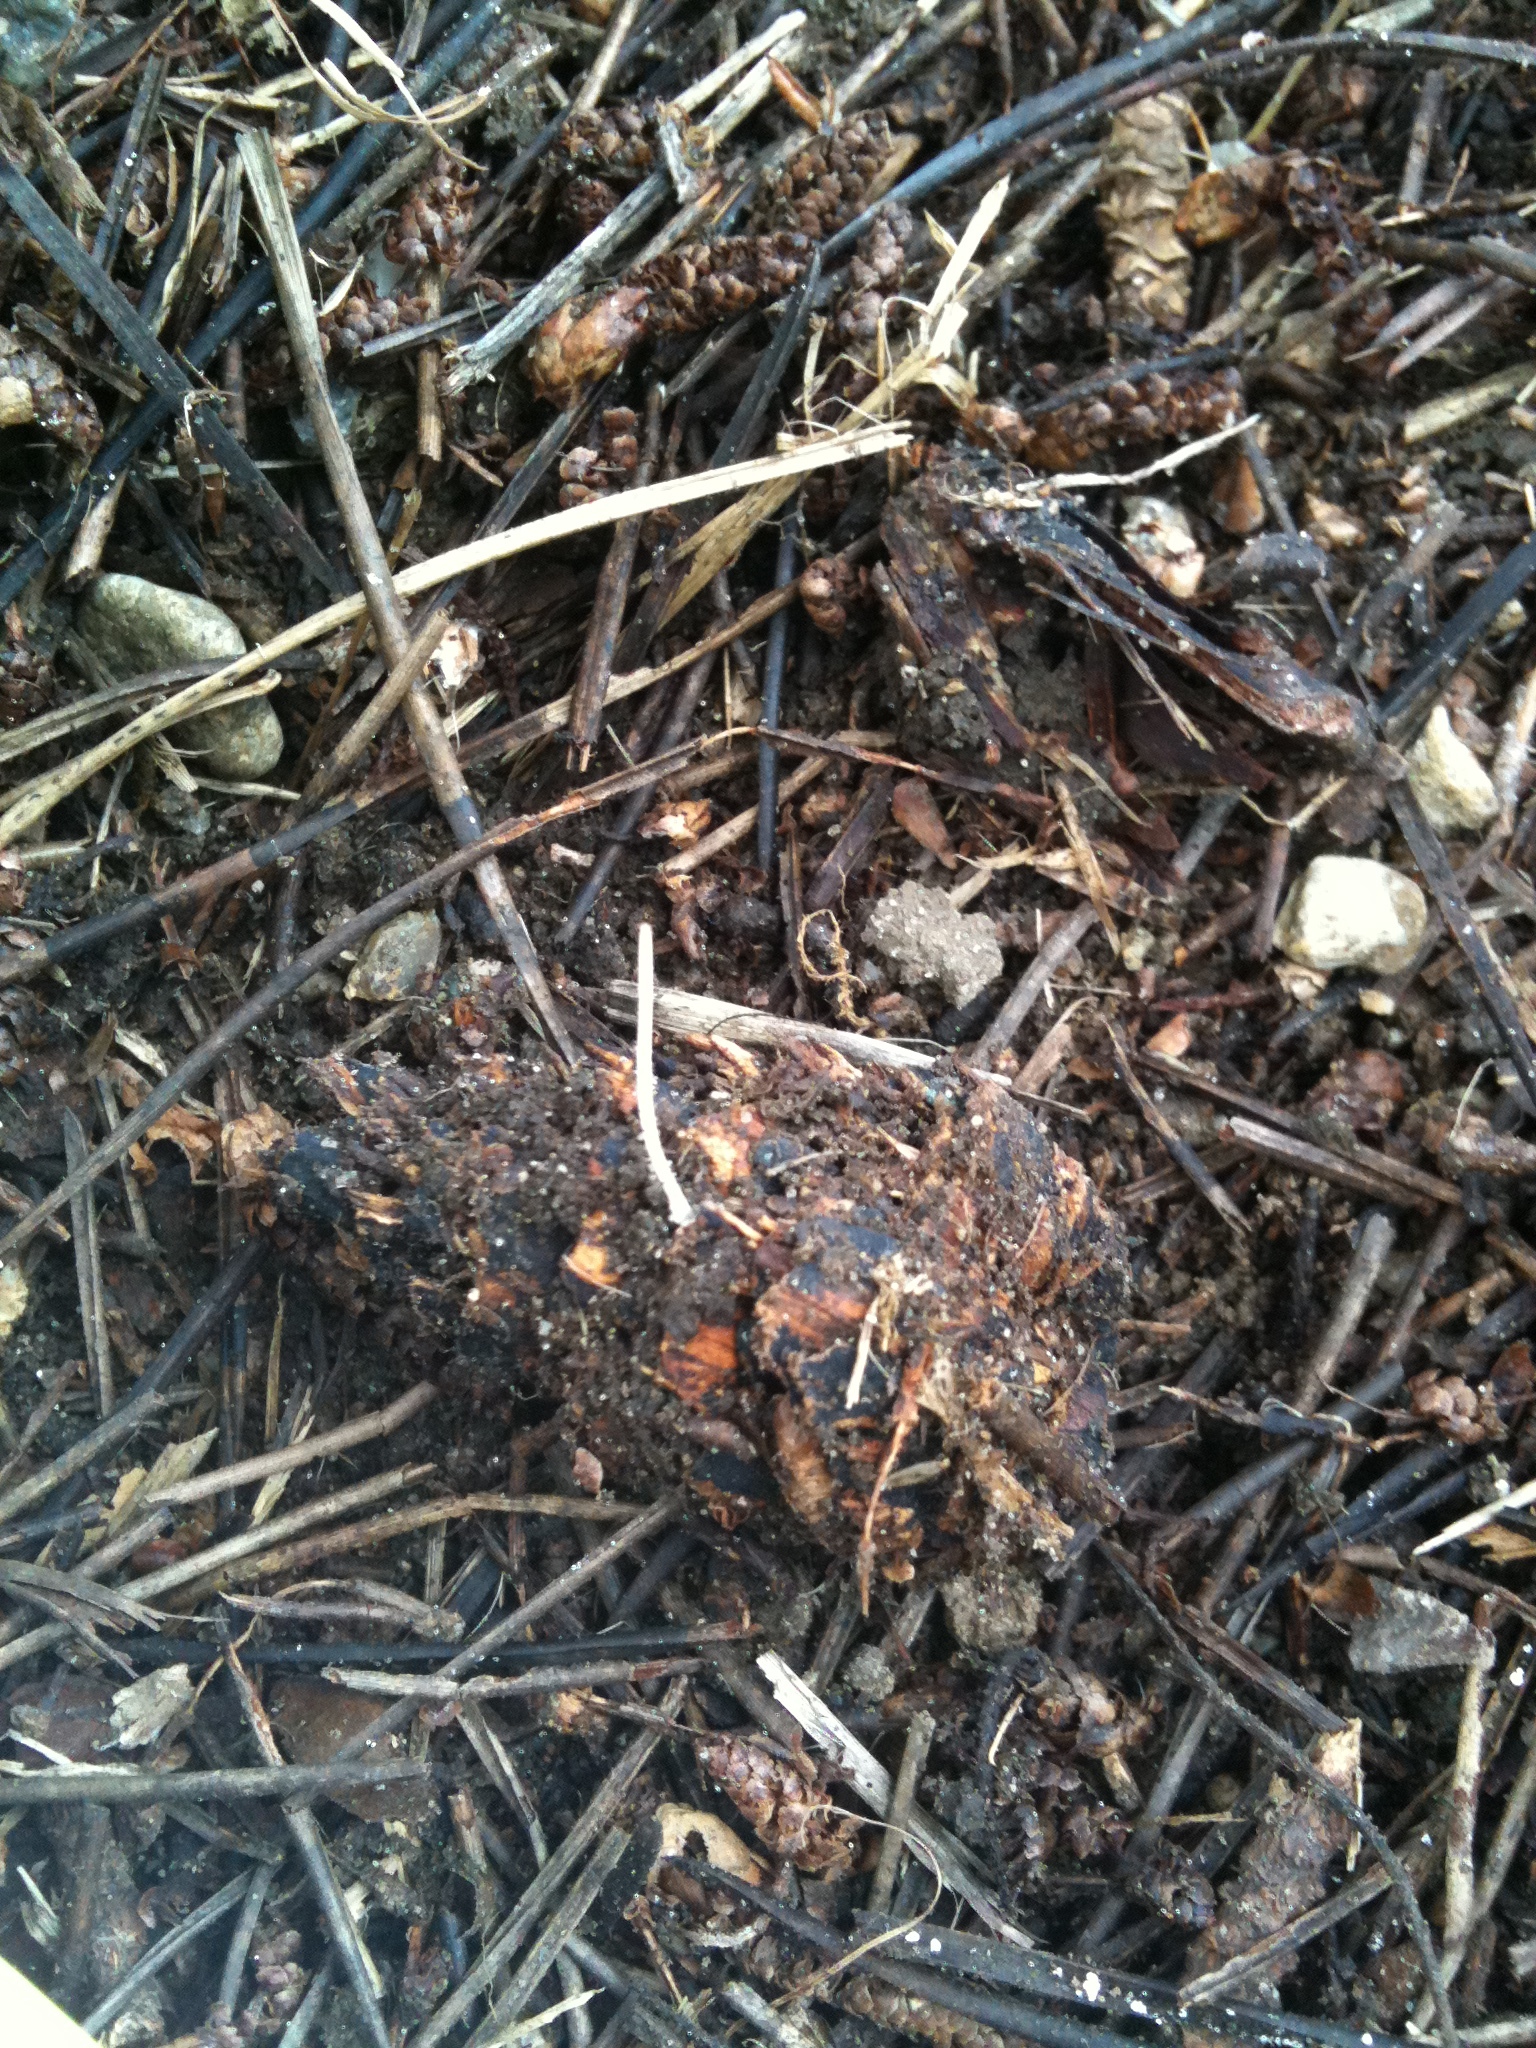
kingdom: Fungi
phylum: Basidiomycota
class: Agaricomycetes
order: Agaricales
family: Physalacriaceae
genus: Strobilurus
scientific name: Strobilurus stephanocystis
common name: Russian conecap
